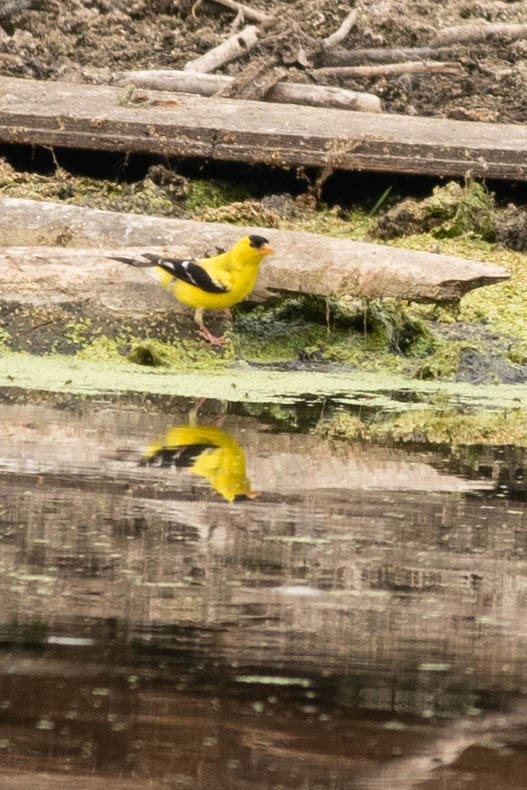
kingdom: Animalia
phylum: Chordata
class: Aves
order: Passeriformes
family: Fringillidae
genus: Spinus
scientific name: Spinus tristis
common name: American goldfinch
